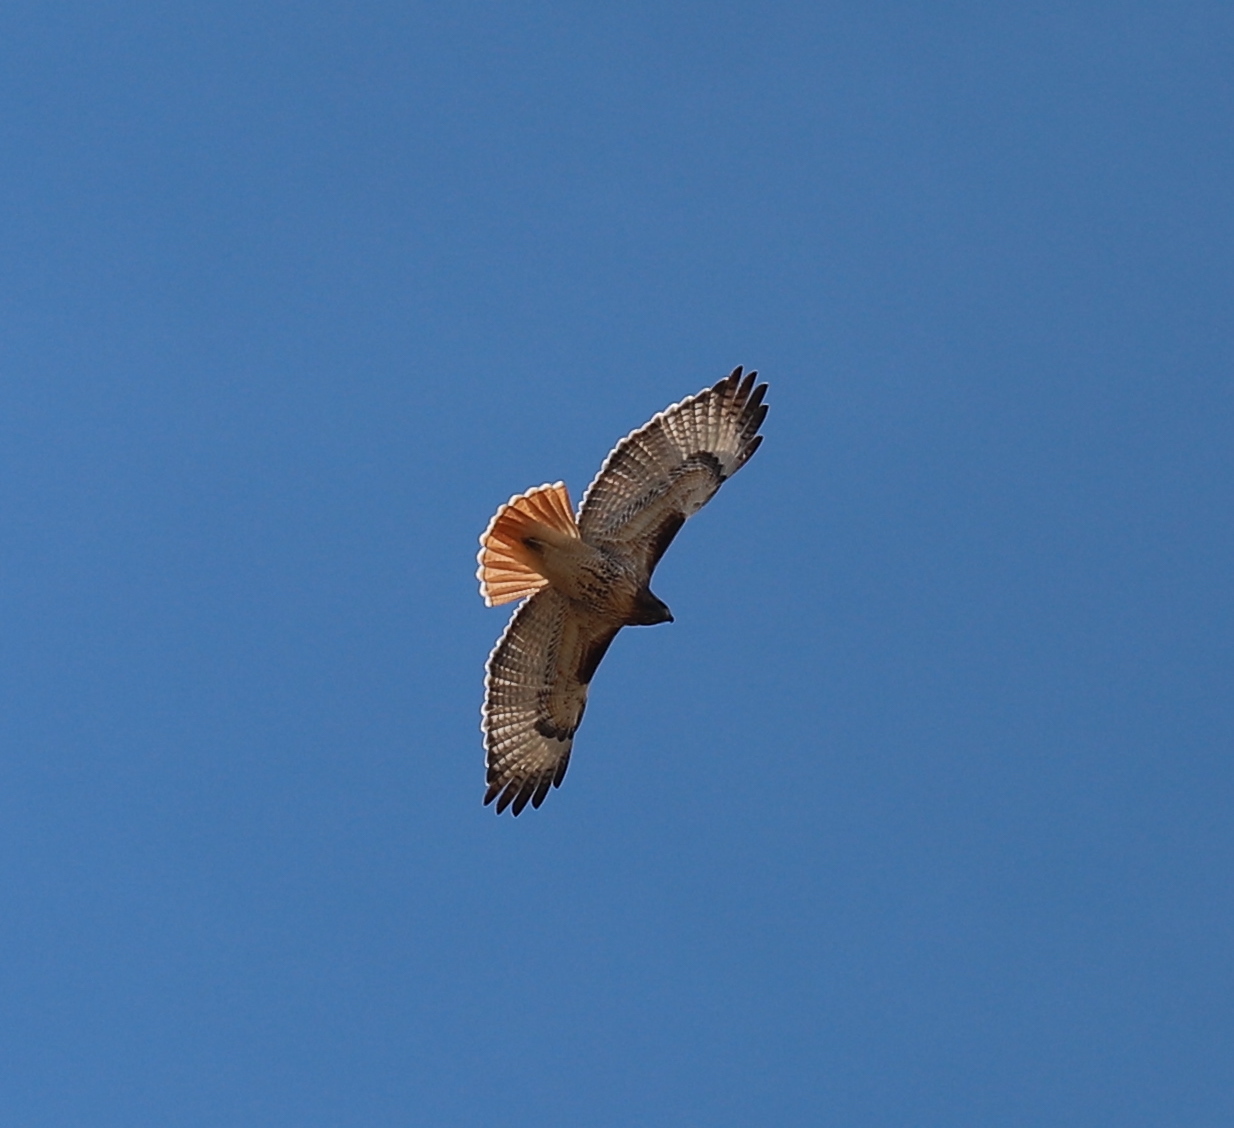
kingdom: Animalia
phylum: Chordata
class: Aves
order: Accipitriformes
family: Accipitridae
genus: Buteo
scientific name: Buteo jamaicensis
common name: Red-tailed hawk
